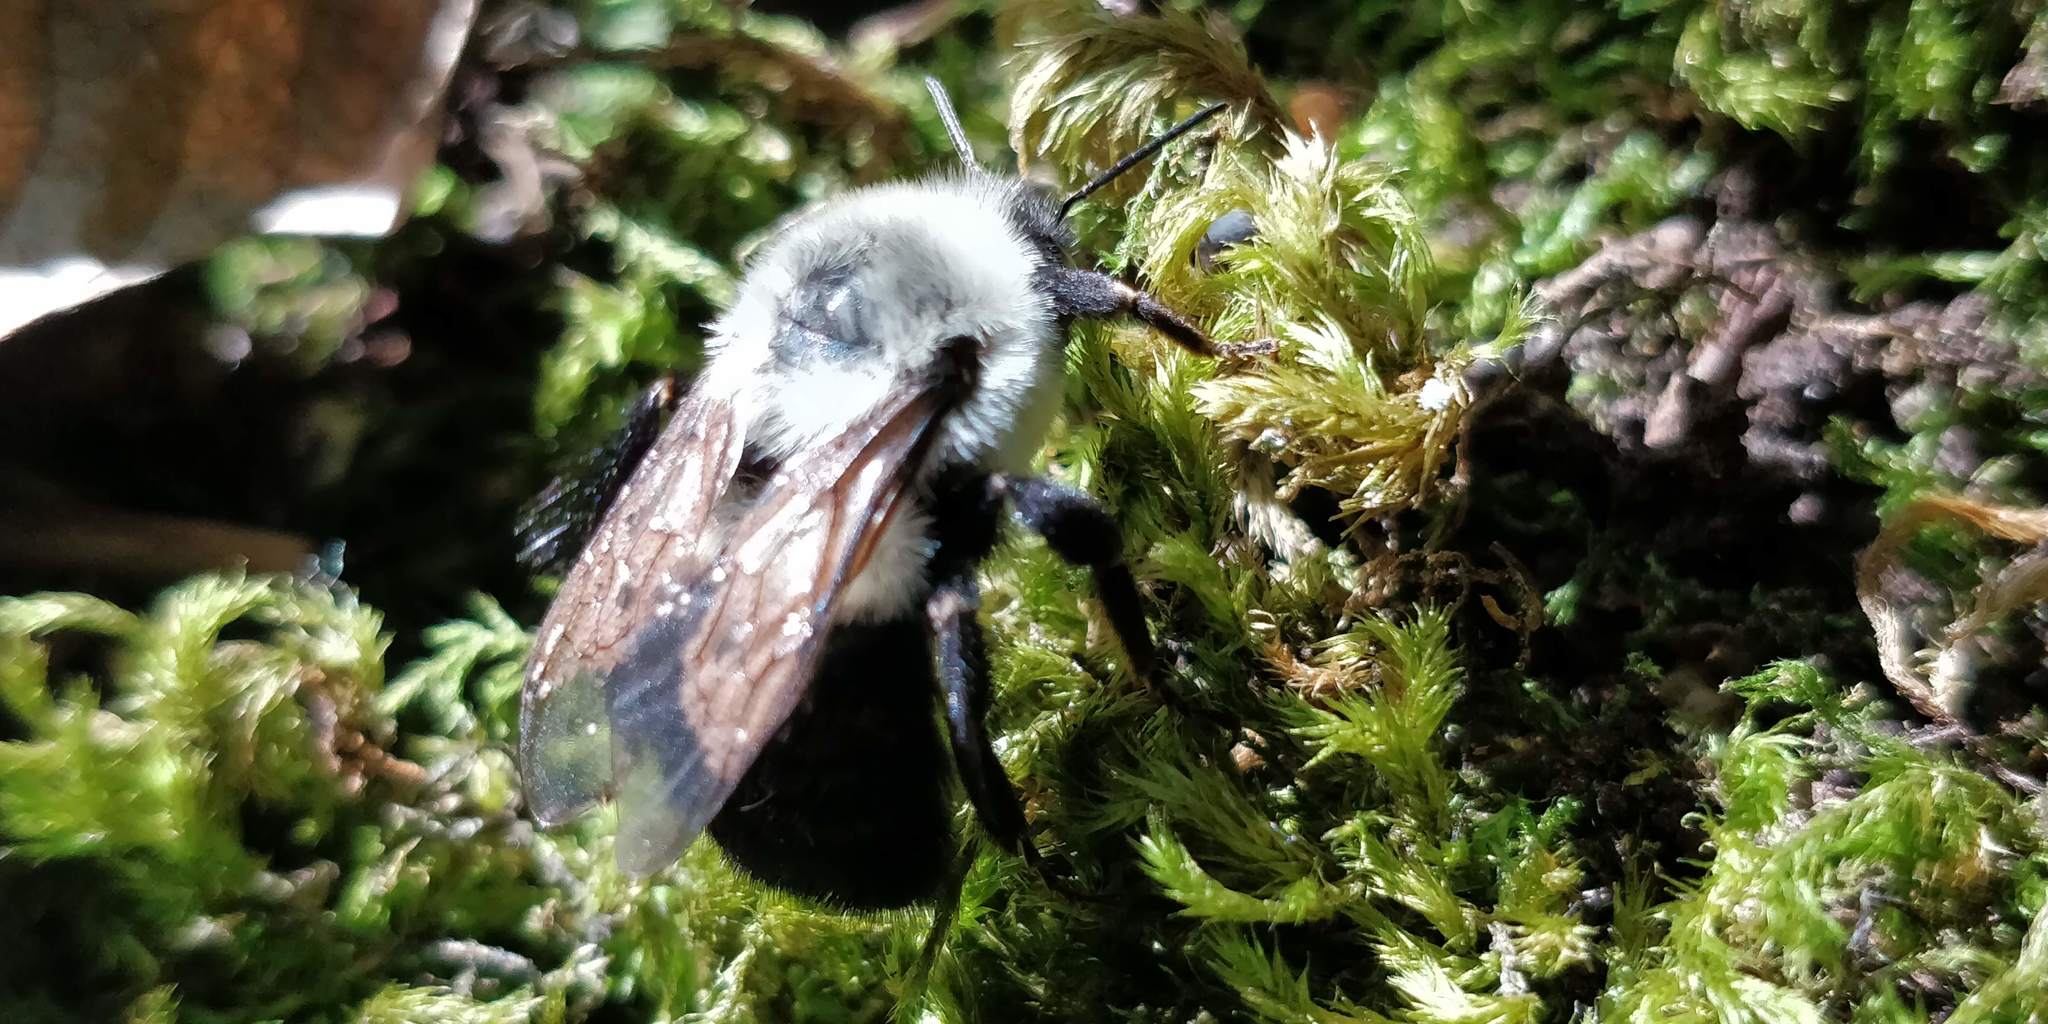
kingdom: Animalia
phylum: Arthropoda
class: Insecta
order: Hymenoptera
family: Apidae
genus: Bombus
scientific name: Bombus impatiens
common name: Common eastern bumble bee
